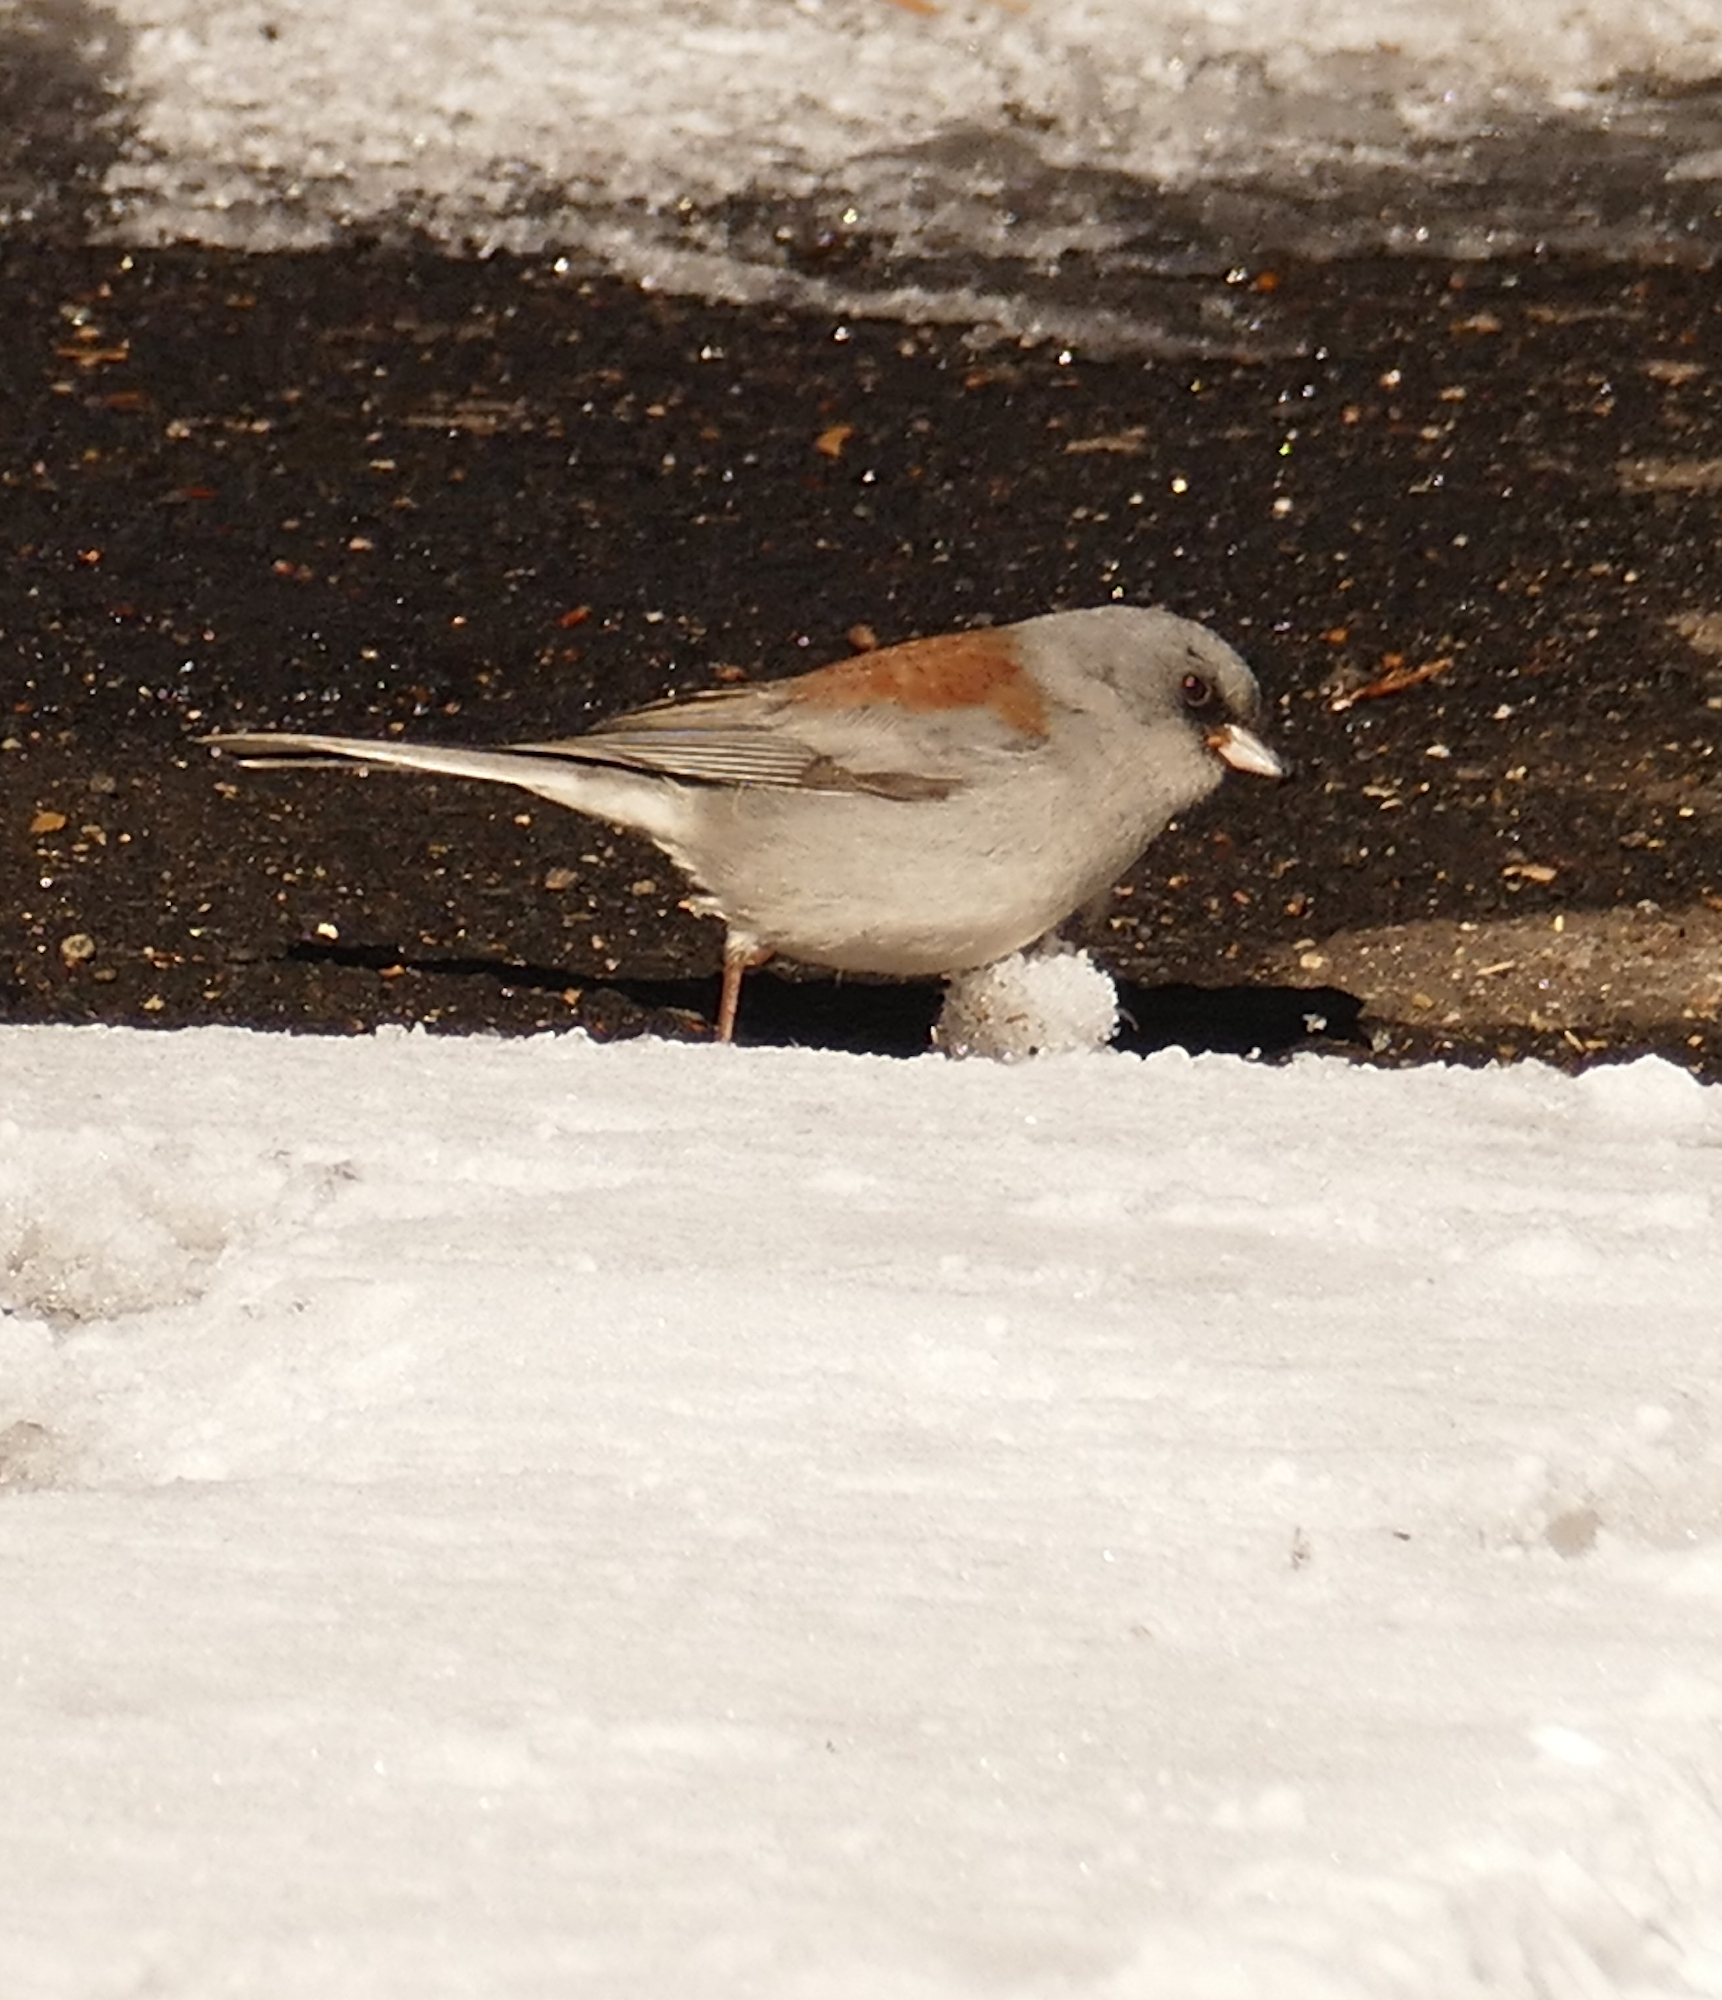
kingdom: Animalia
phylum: Chordata
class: Aves
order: Passeriformes
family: Passerellidae
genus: Junco
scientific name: Junco hyemalis
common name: Dark-eyed junco
